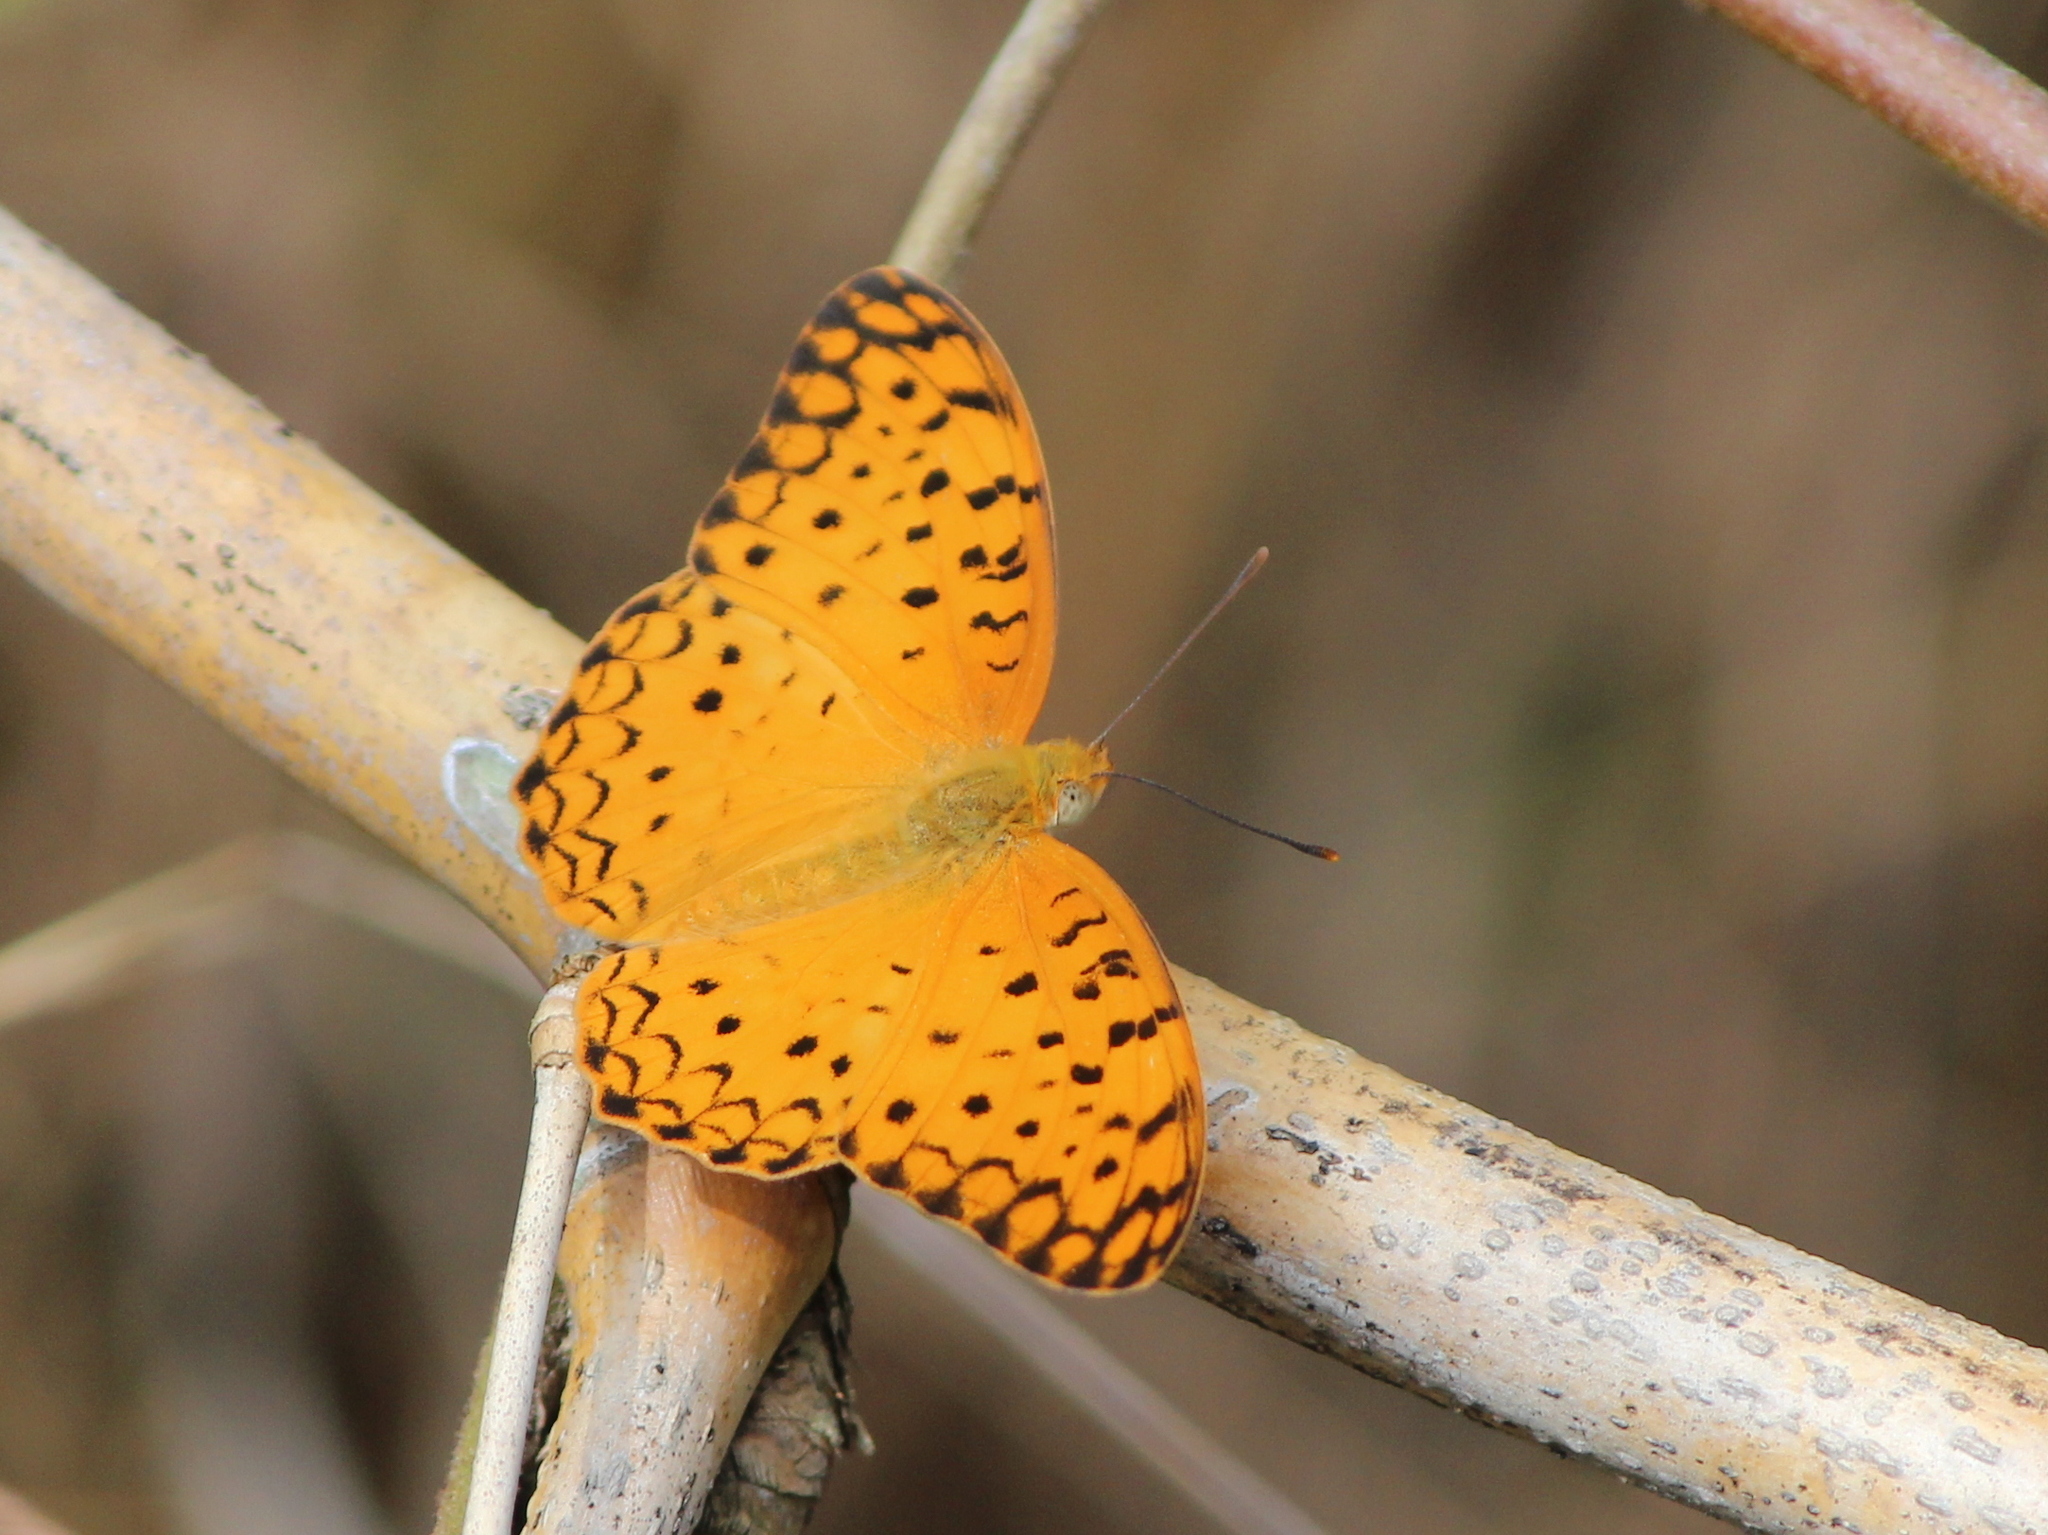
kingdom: Animalia
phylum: Arthropoda
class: Insecta
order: Lepidoptera
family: Nymphalidae
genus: Phalanta
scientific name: Phalanta phalantha
